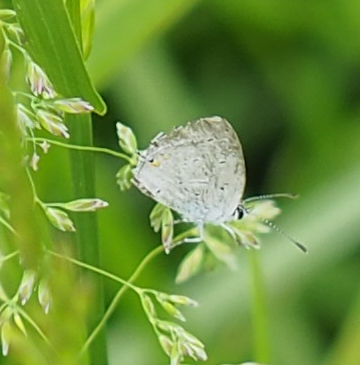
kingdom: Animalia
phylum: Arthropoda
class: Insecta
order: Lepidoptera
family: Lycaenidae
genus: Elkalyce
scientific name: Elkalyce comyntas
